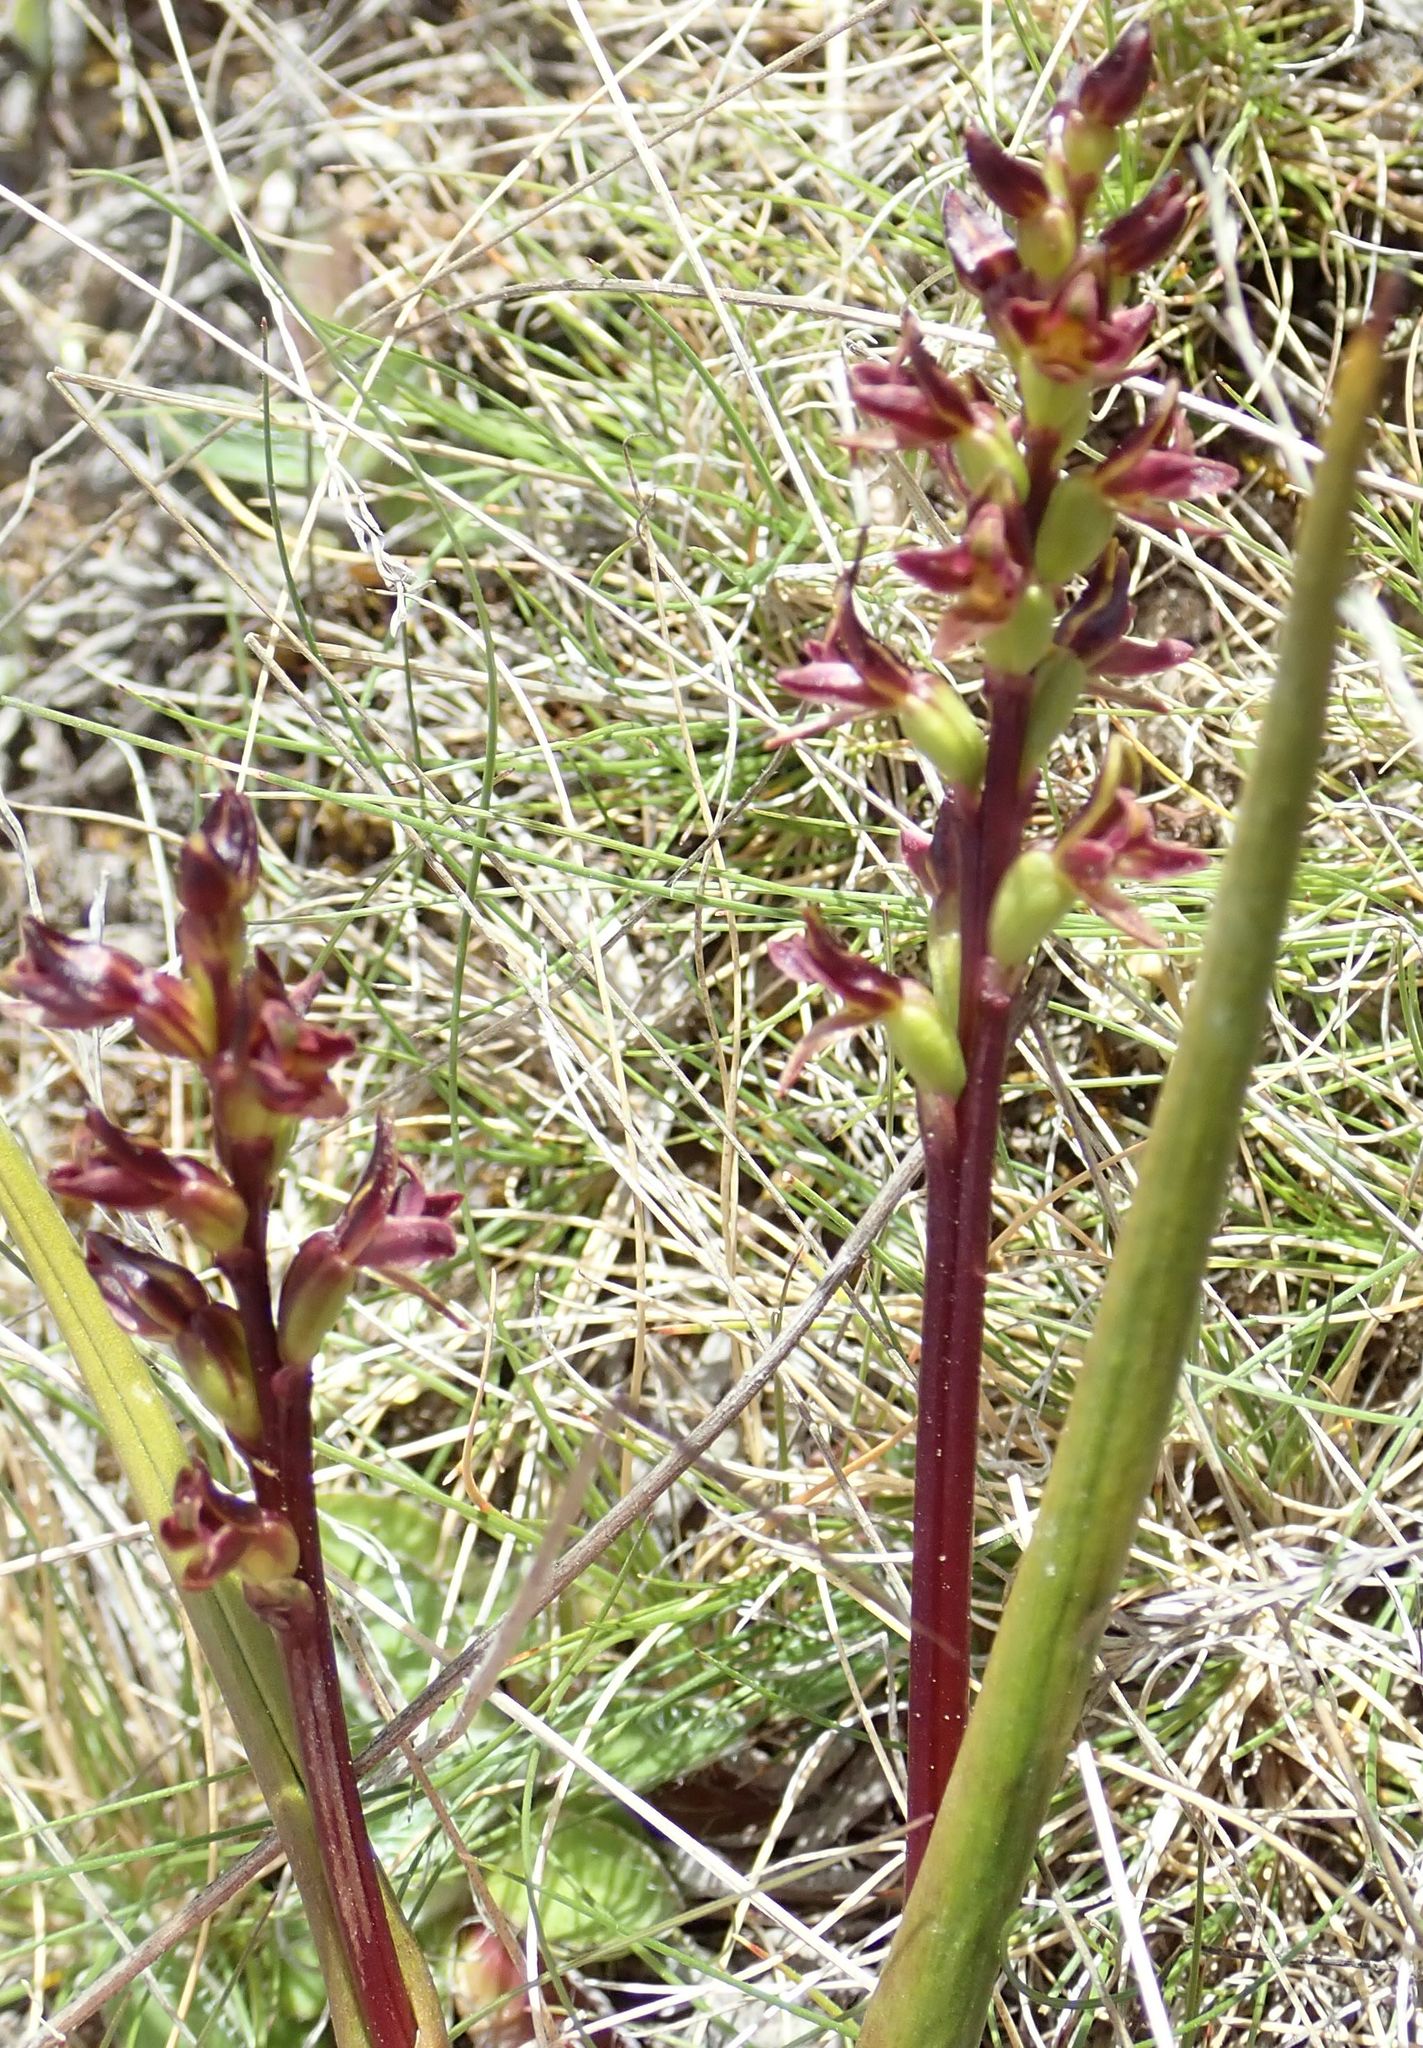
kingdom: Plantae
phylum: Tracheophyta
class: Liliopsida
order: Asparagales
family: Orchidaceae
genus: Prasophyllum
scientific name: Prasophyllum colensoi
